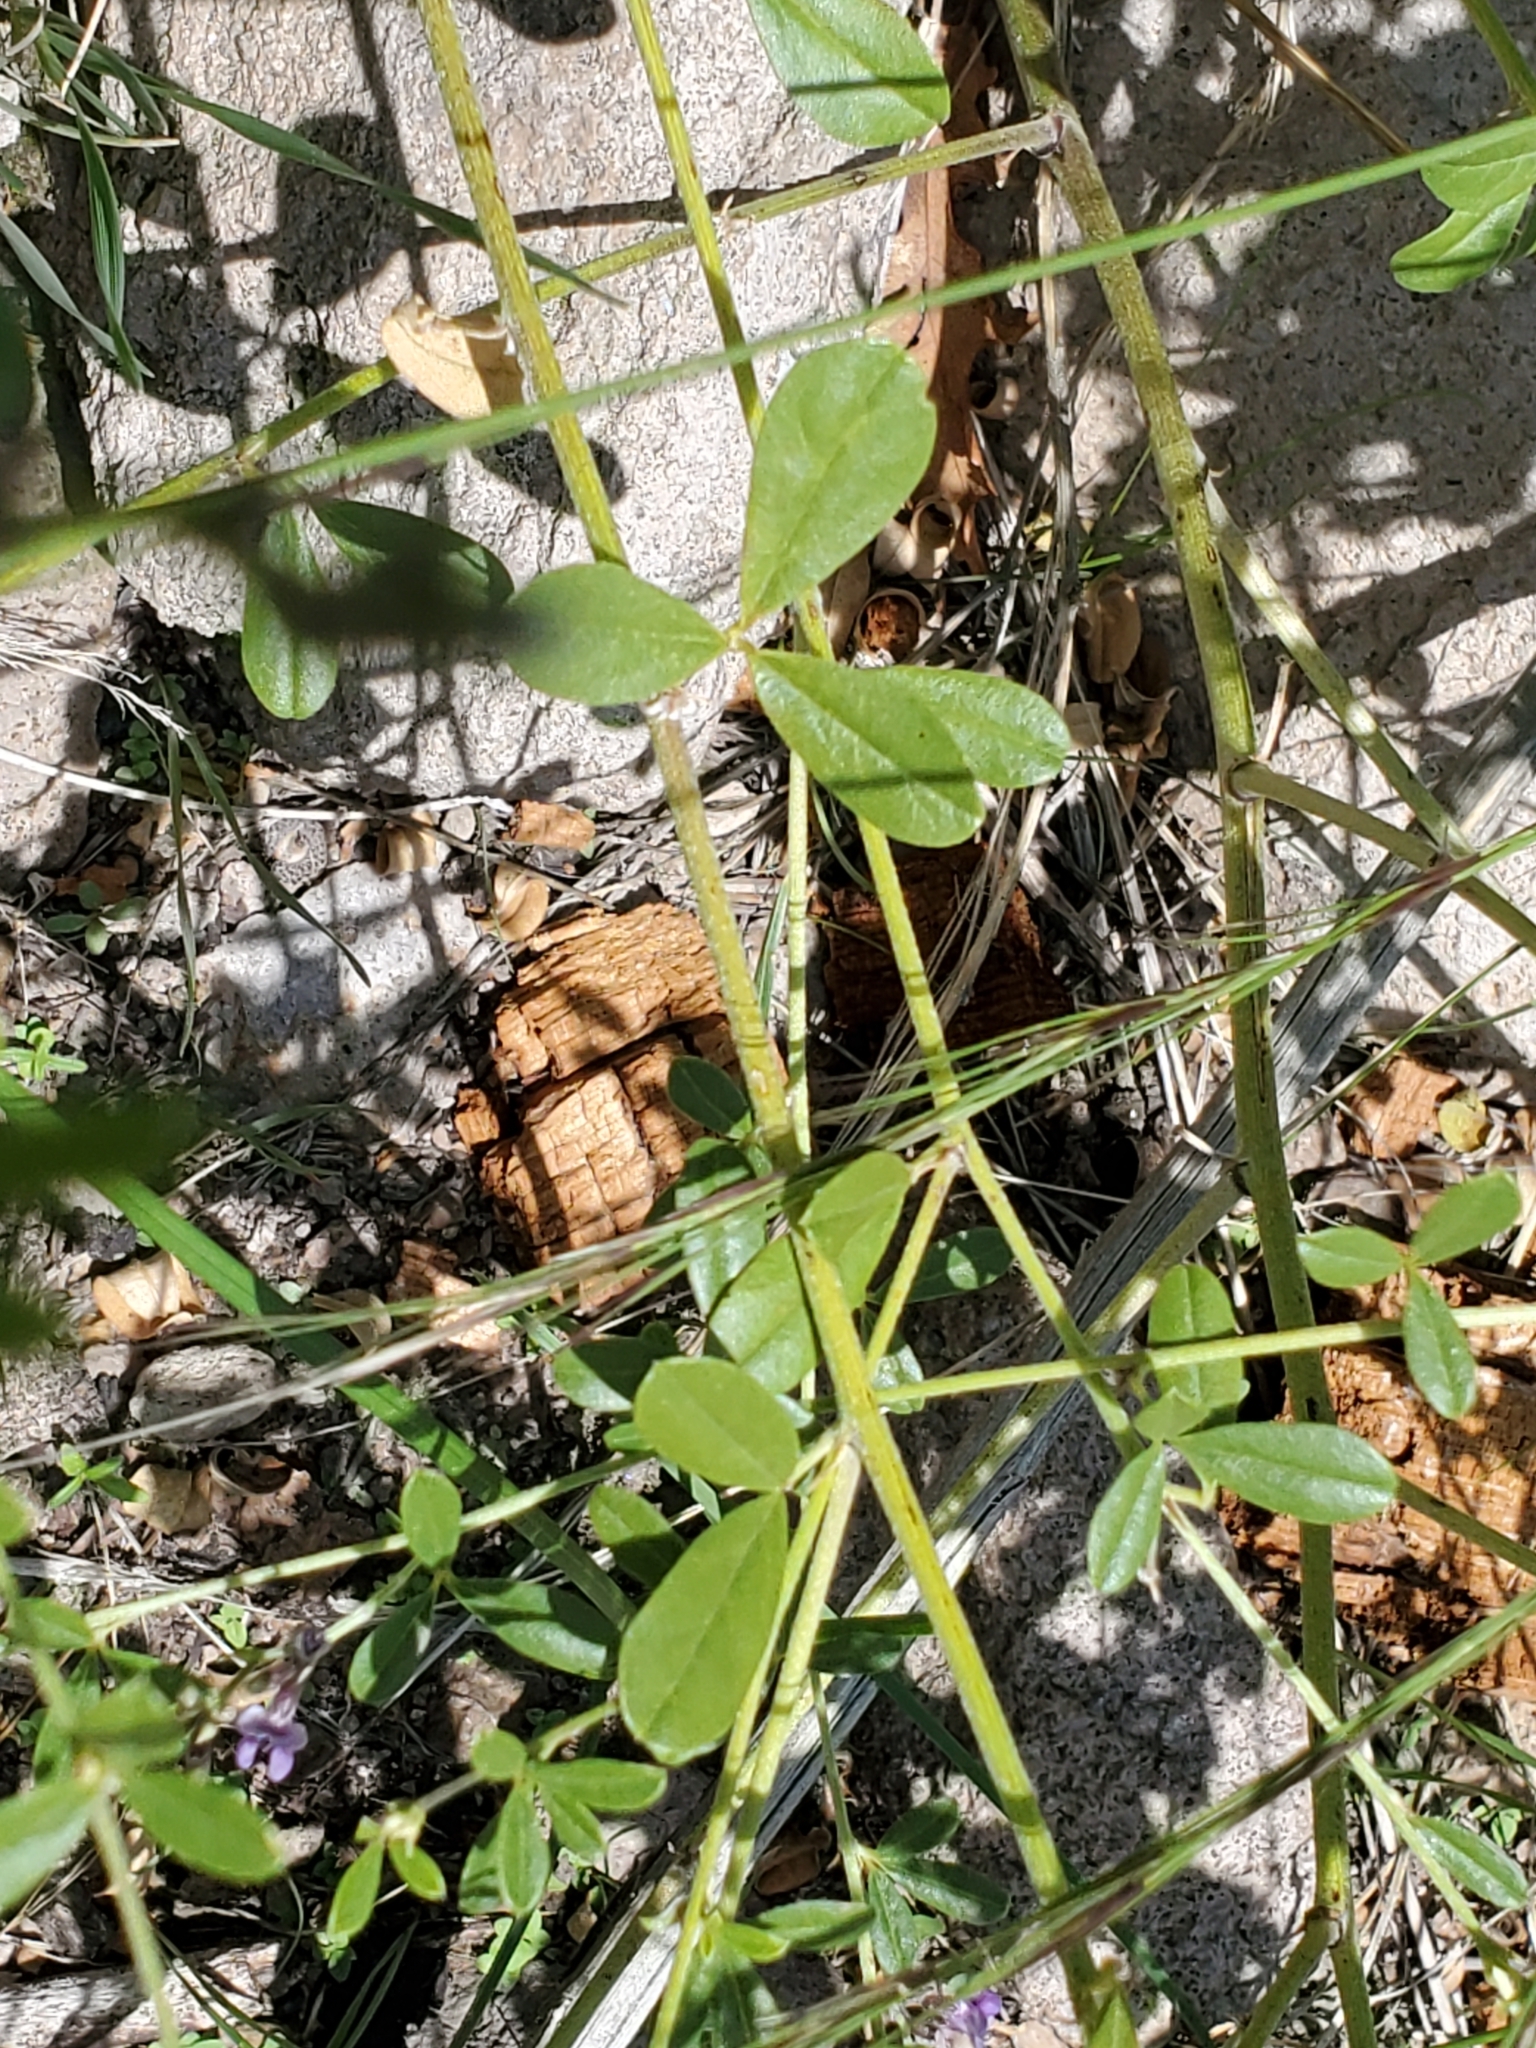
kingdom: Plantae
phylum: Tracheophyta
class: Magnoliopsida
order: Fabales
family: Fabaceae
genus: Pediomelum
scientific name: Pediomelum tenuiflorum
